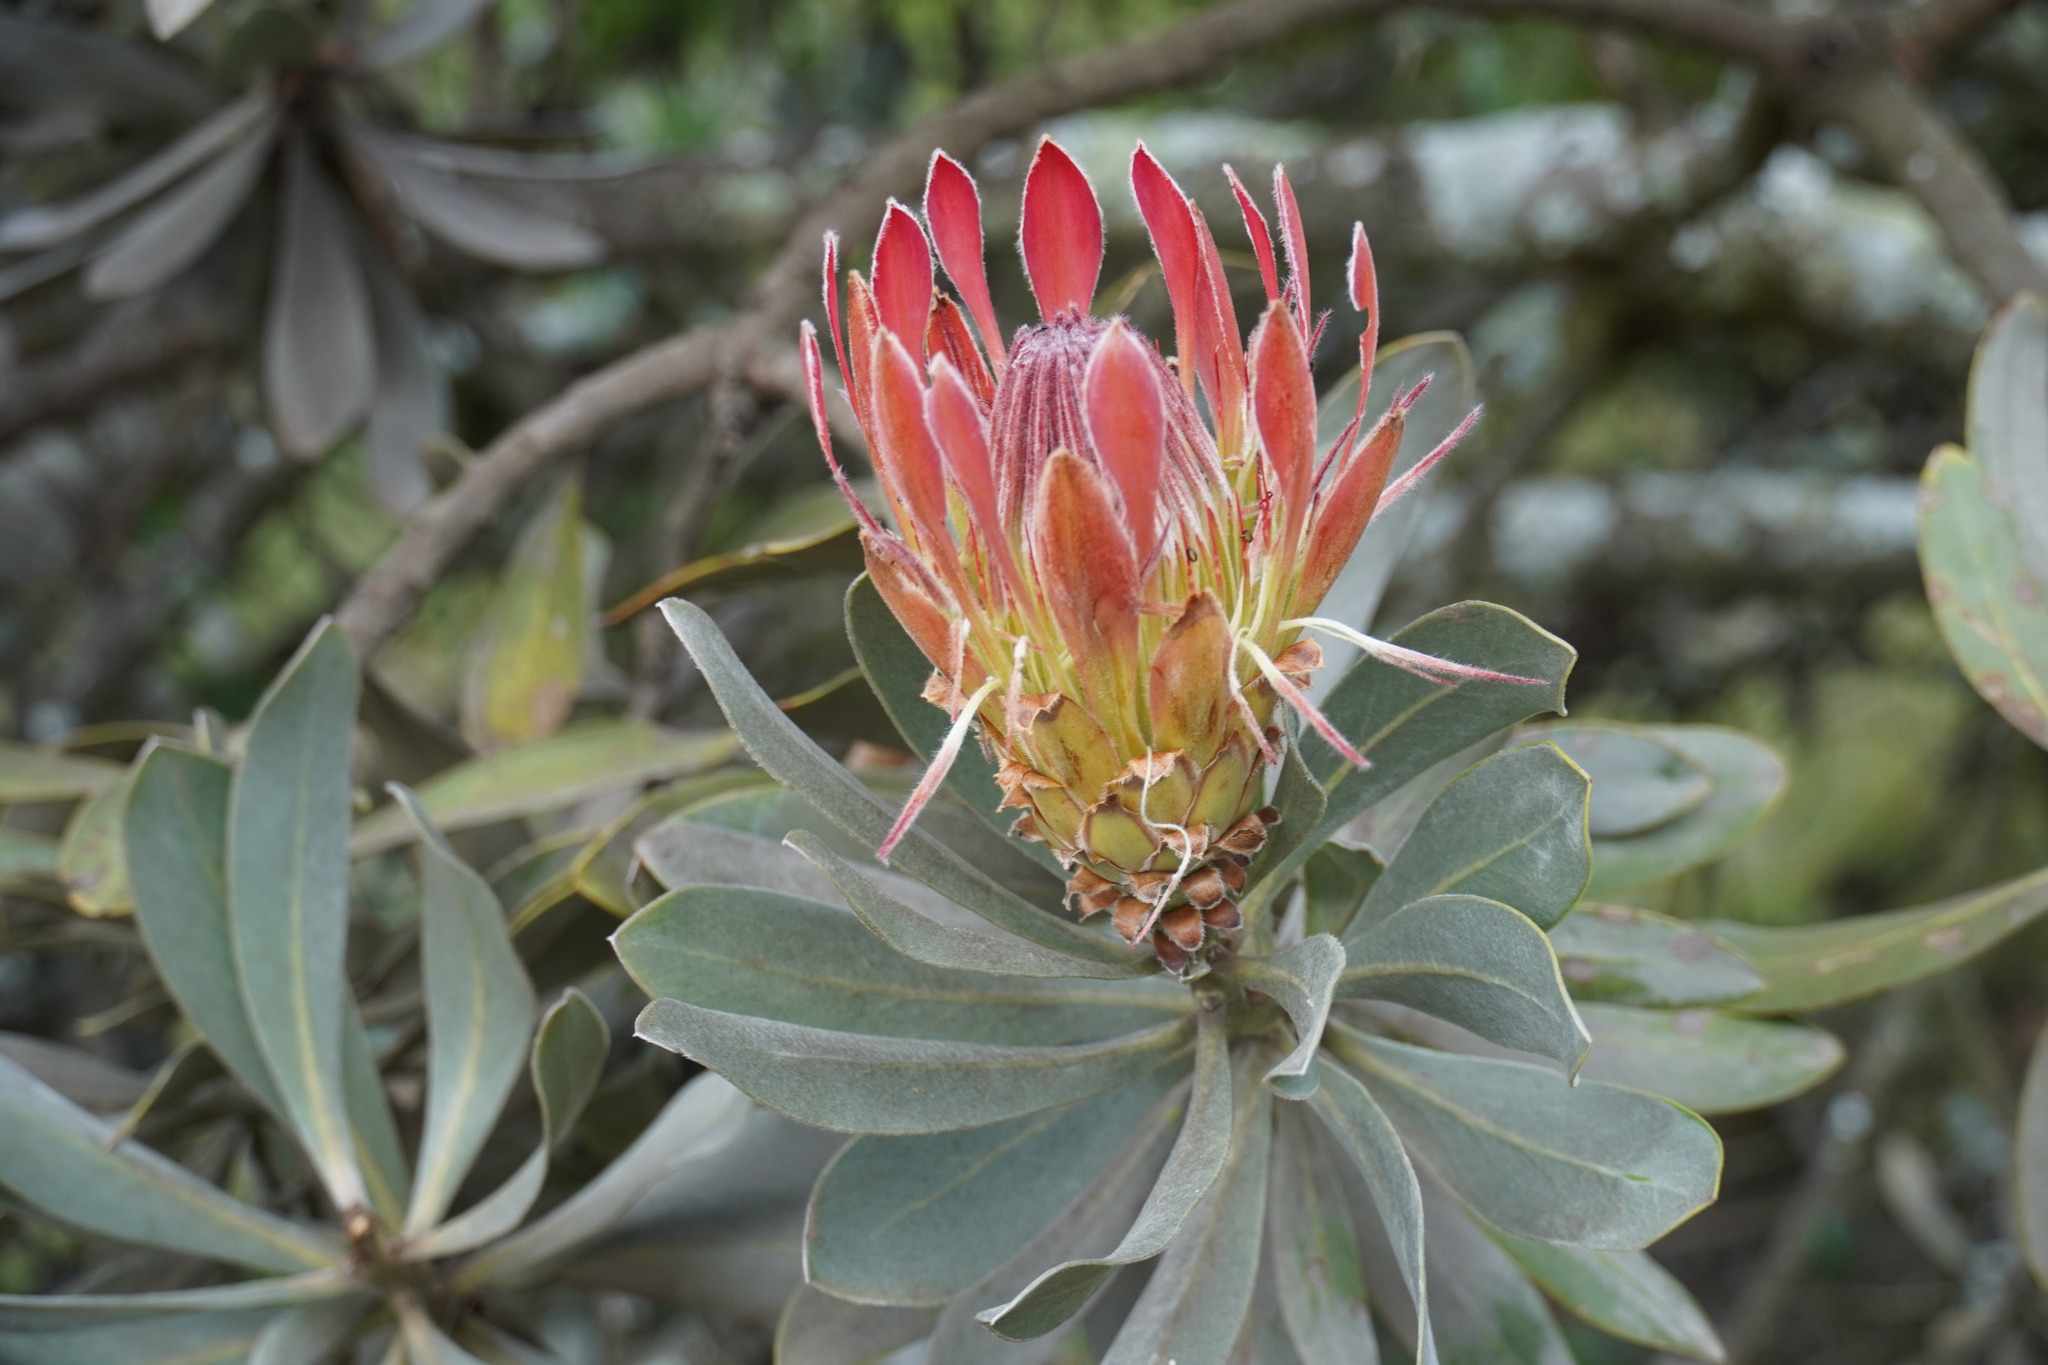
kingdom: Plantae
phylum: Tracheophyta
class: Magnoliopsida
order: Proteales
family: Proteaceae
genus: Protea
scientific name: Protea roupelliae
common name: Silver sugarbush
